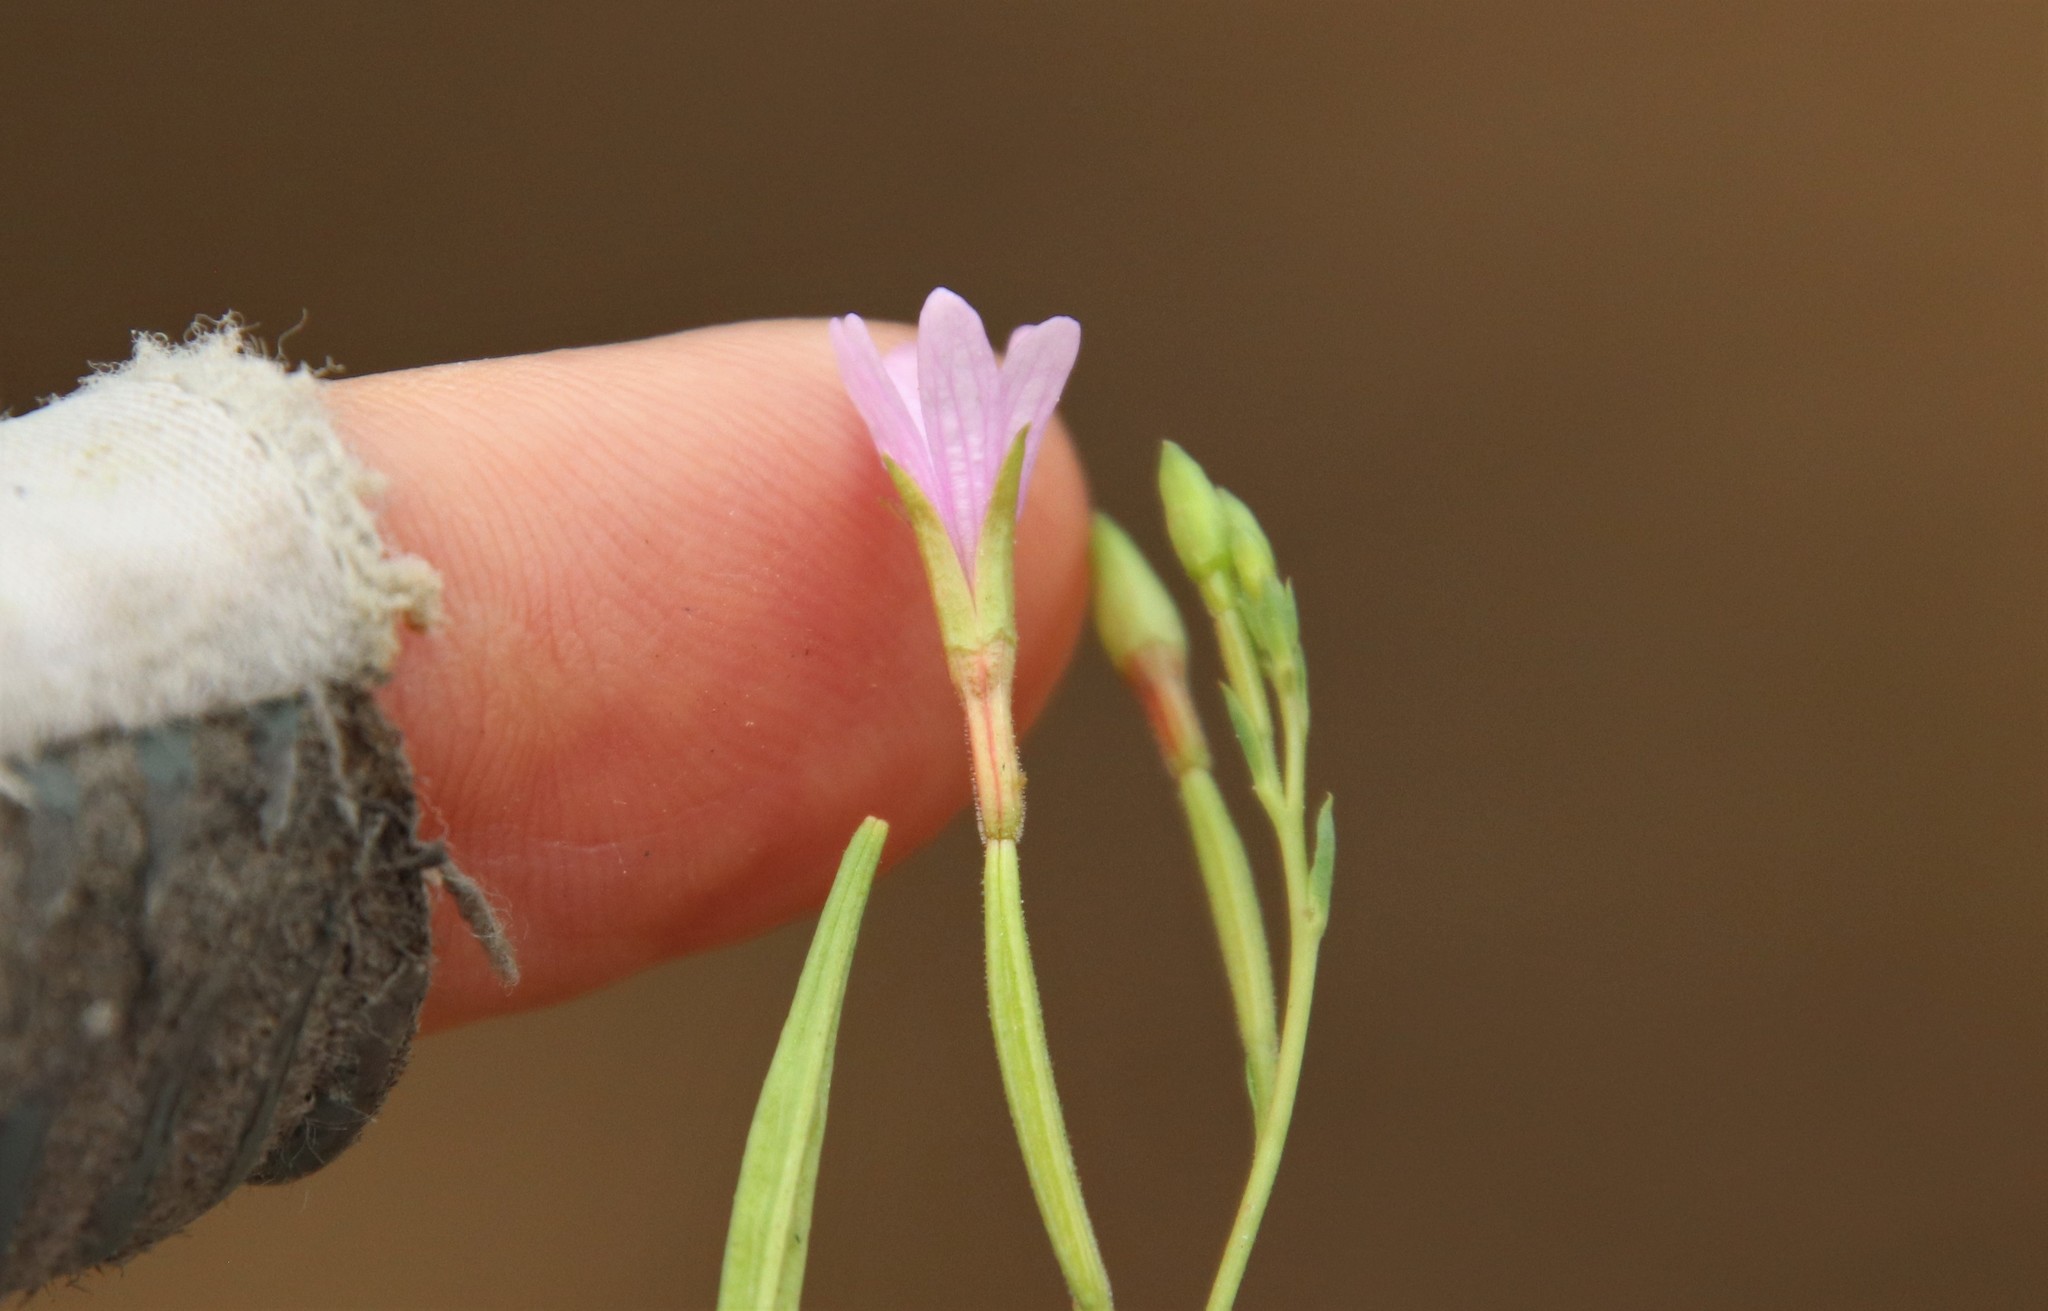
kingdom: Plantae
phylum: Tracheophyta
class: Magnoliopsida
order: Myrtales
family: Onagraceae
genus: Epilobium
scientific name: Epilobium brachycarpum
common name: Annual willowherb
